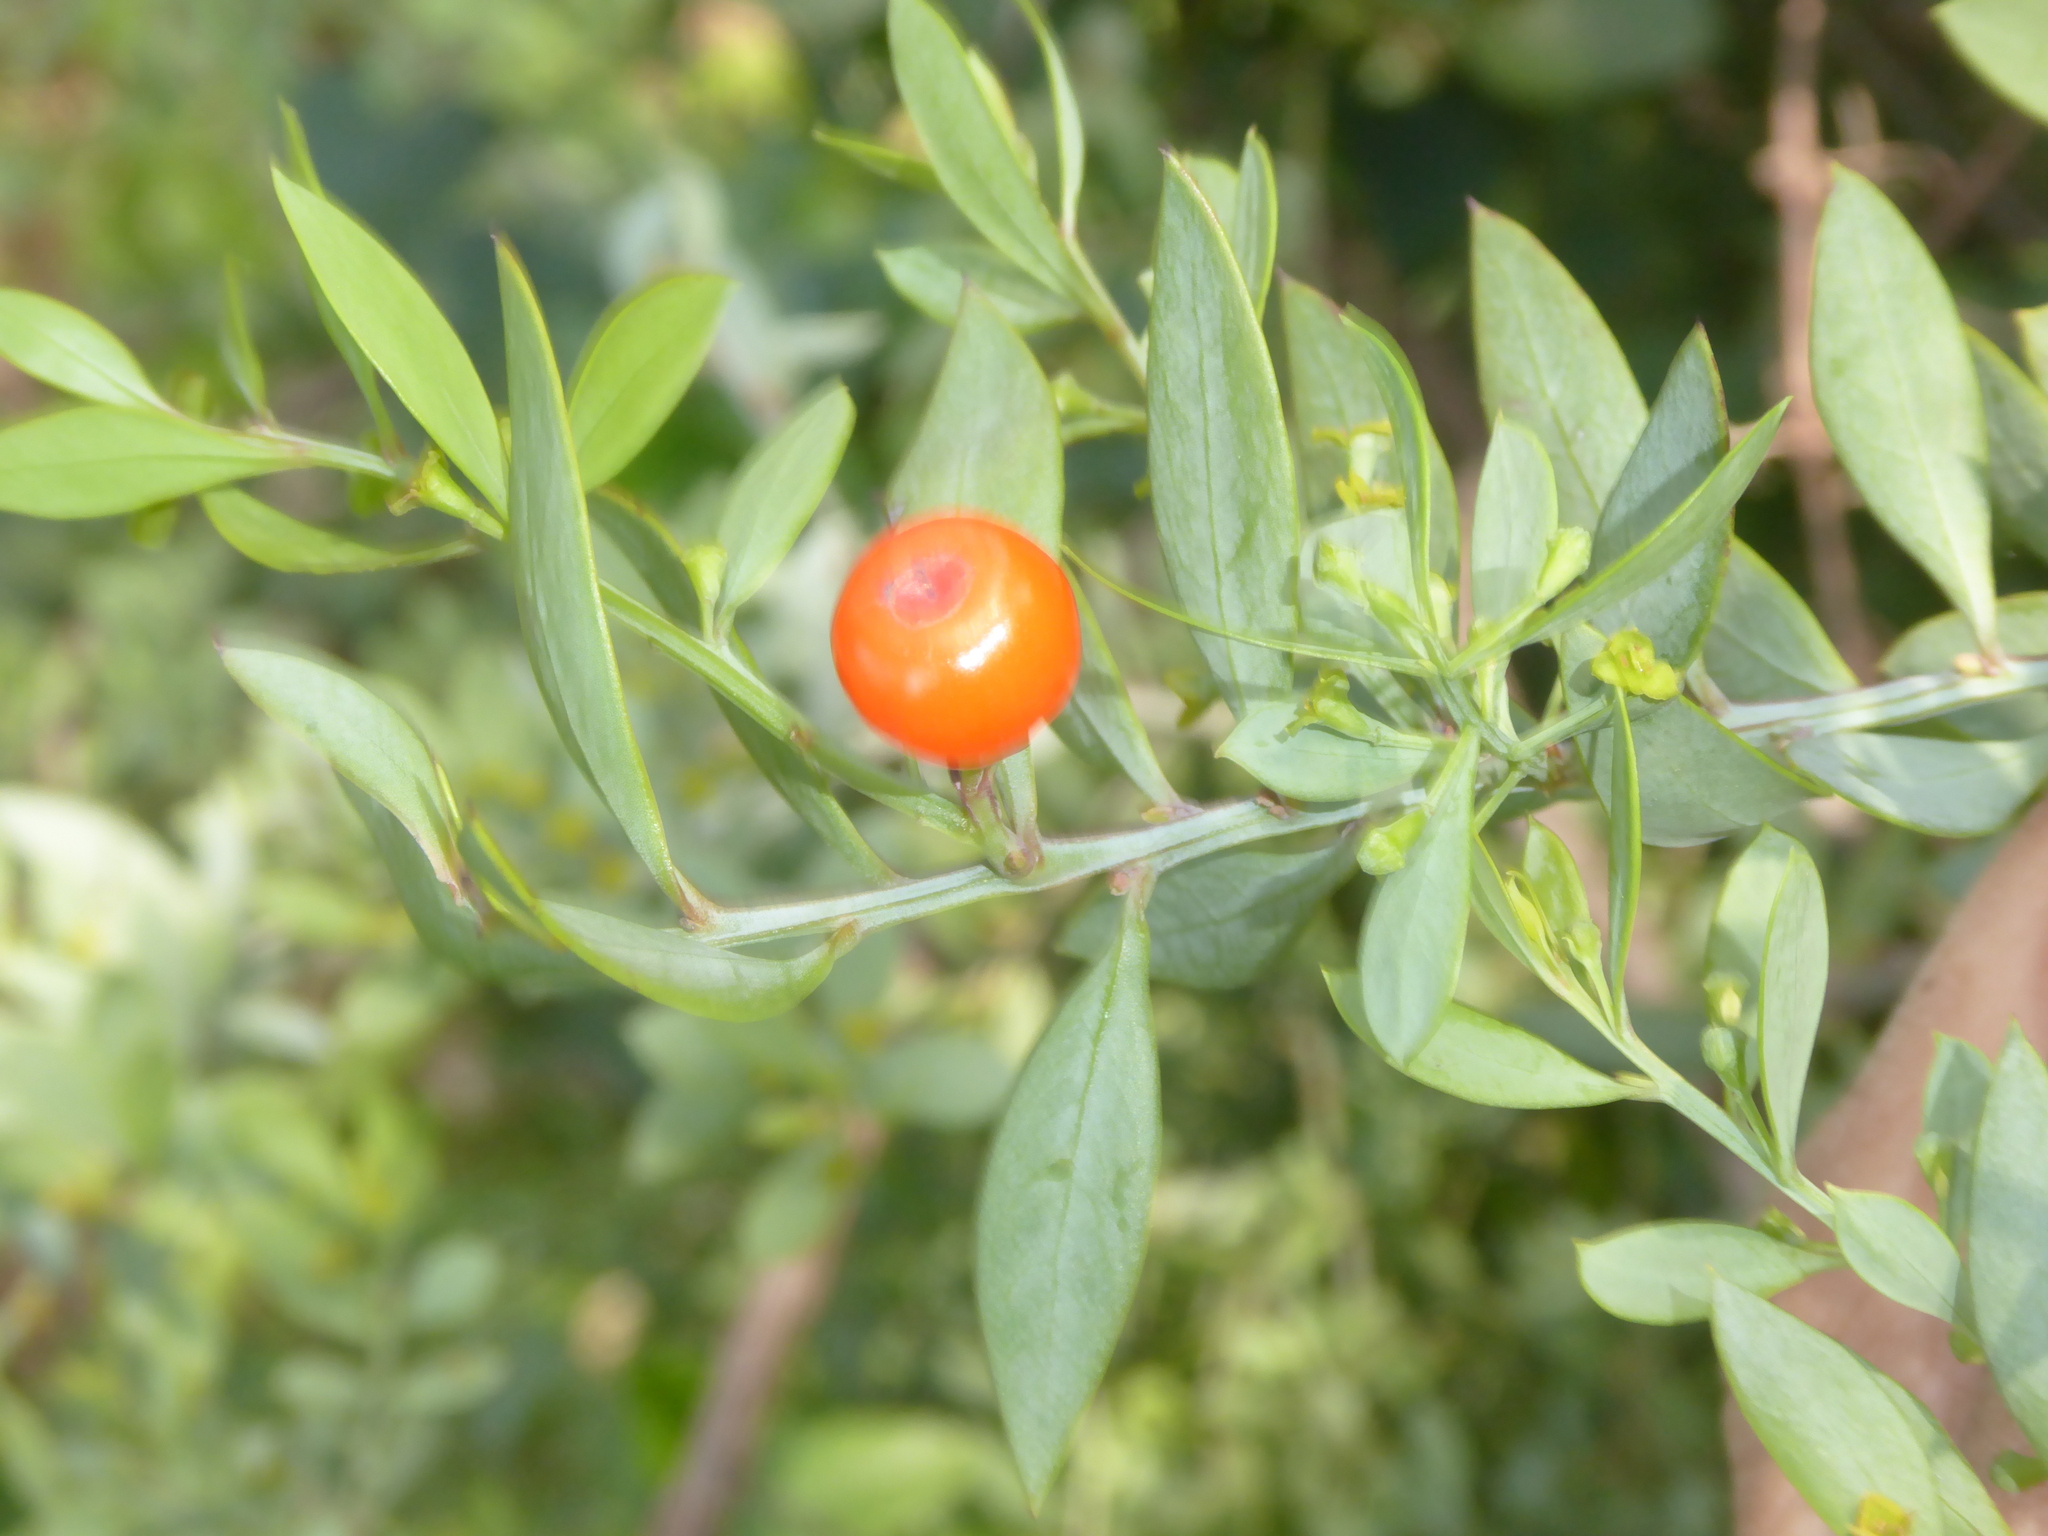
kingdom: Plantae
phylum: Tracheophyta
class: Liliopsida
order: Asparagales
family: Asparagaceae
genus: Ruscus
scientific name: Ruscus aculeatus
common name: Butcher's-broom
